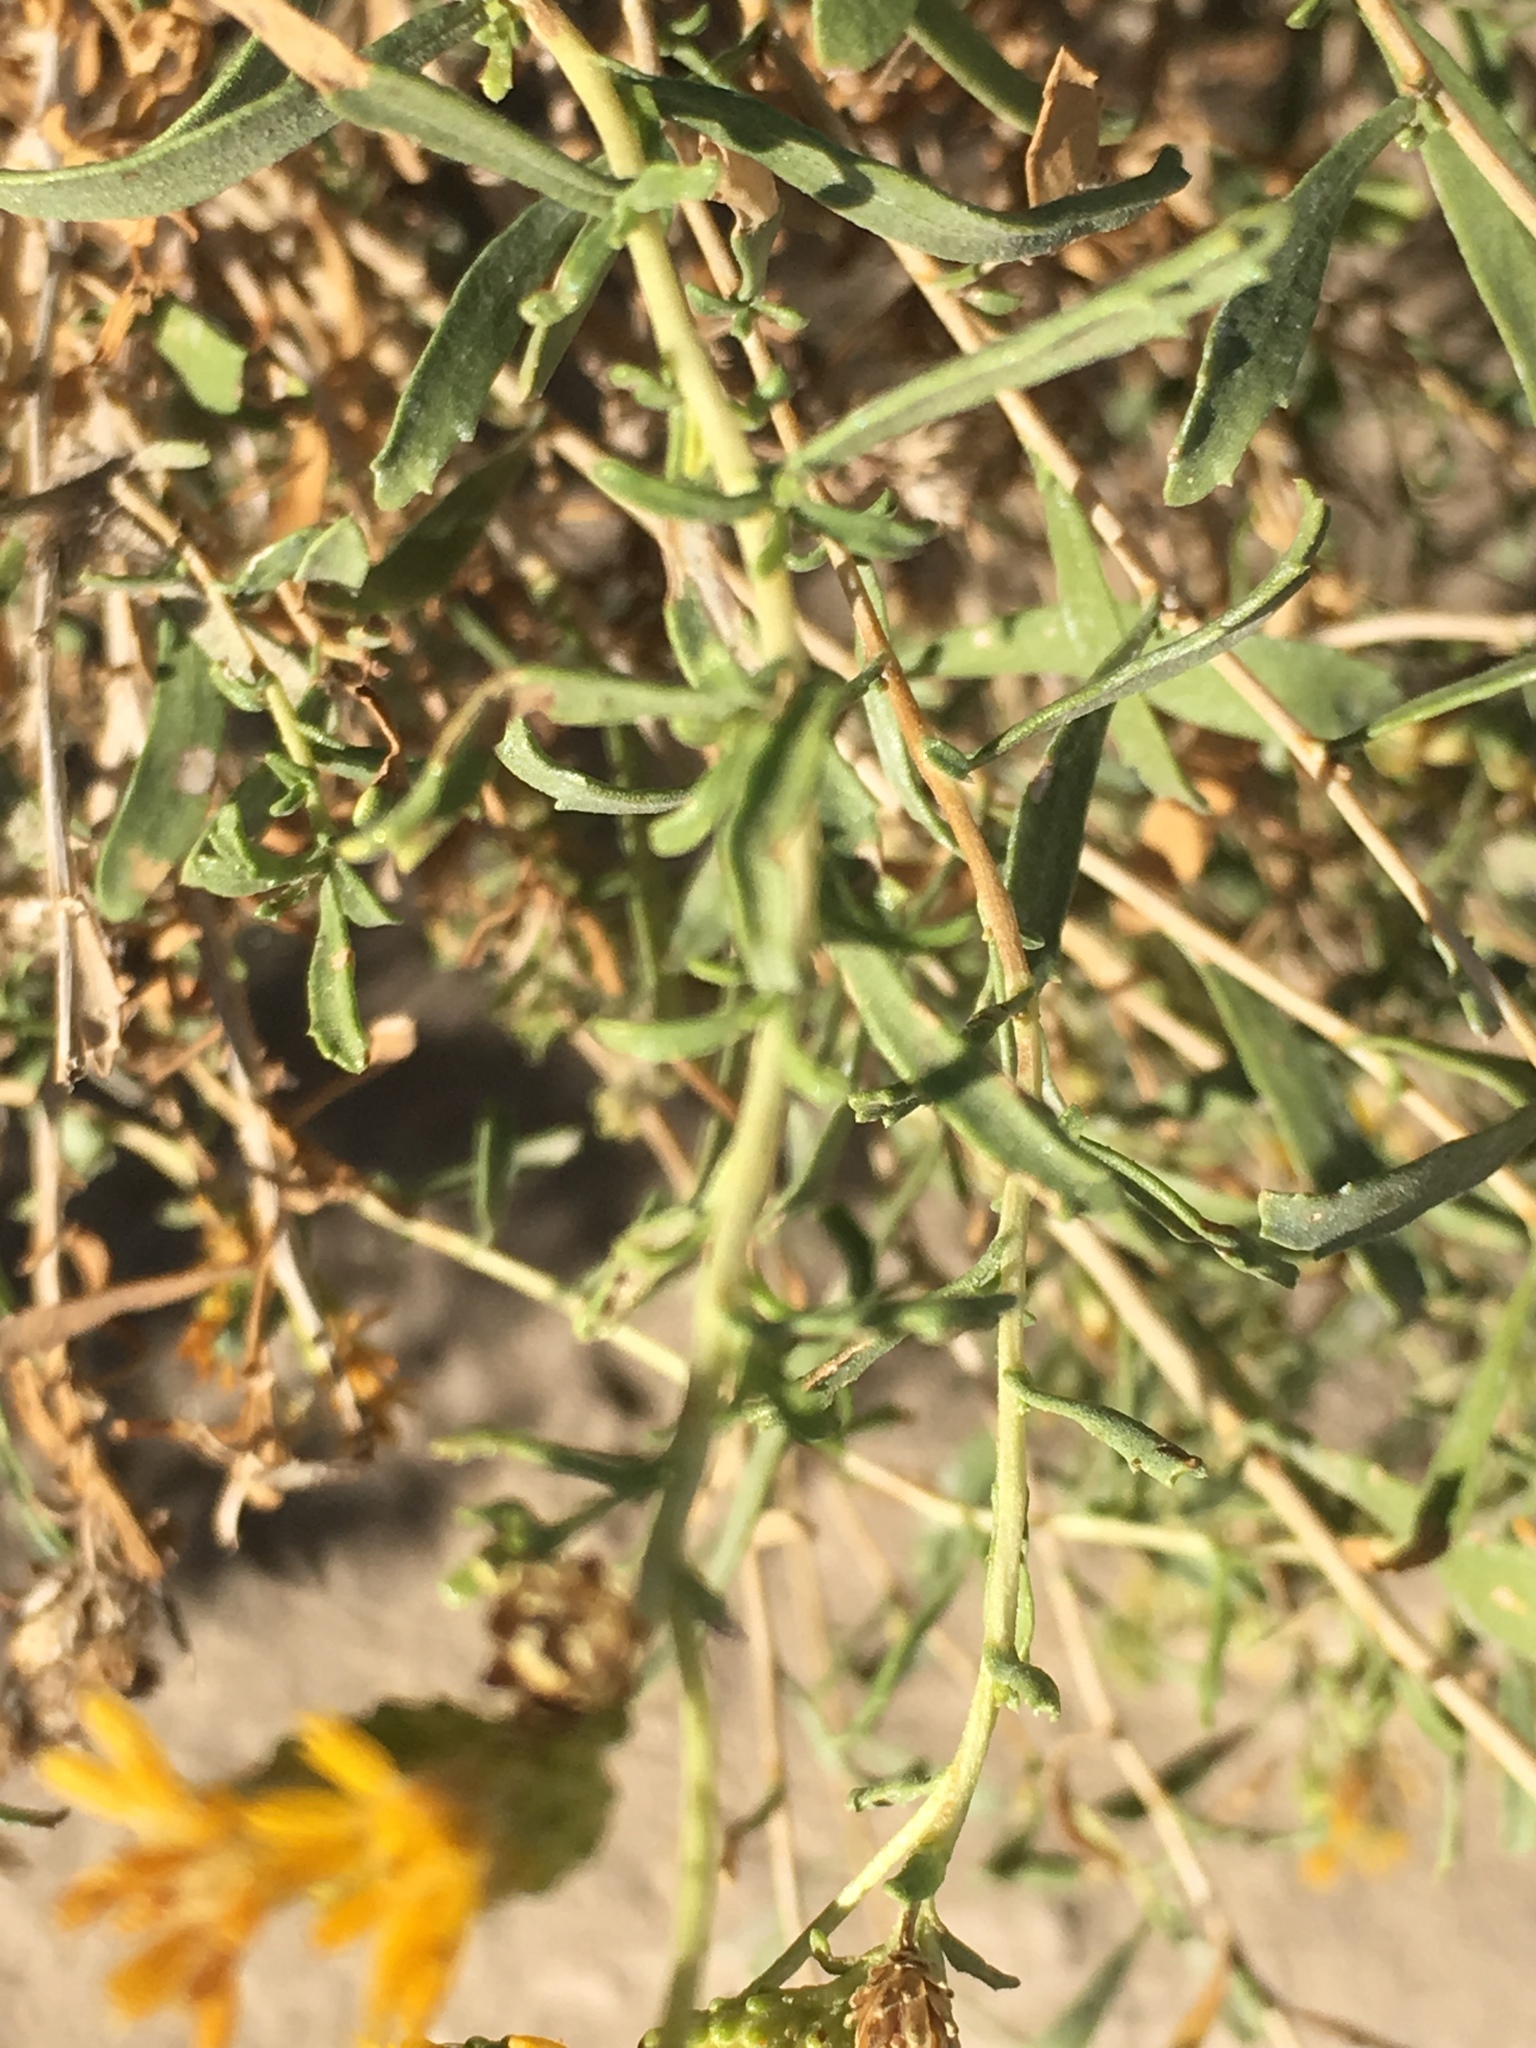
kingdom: Plantae
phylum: Tracheophyta
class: Magnoliopsida
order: Asterales
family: Asteraceae
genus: Isocoma
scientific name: Isocoma acradenia
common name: Alkali jimmyweed
